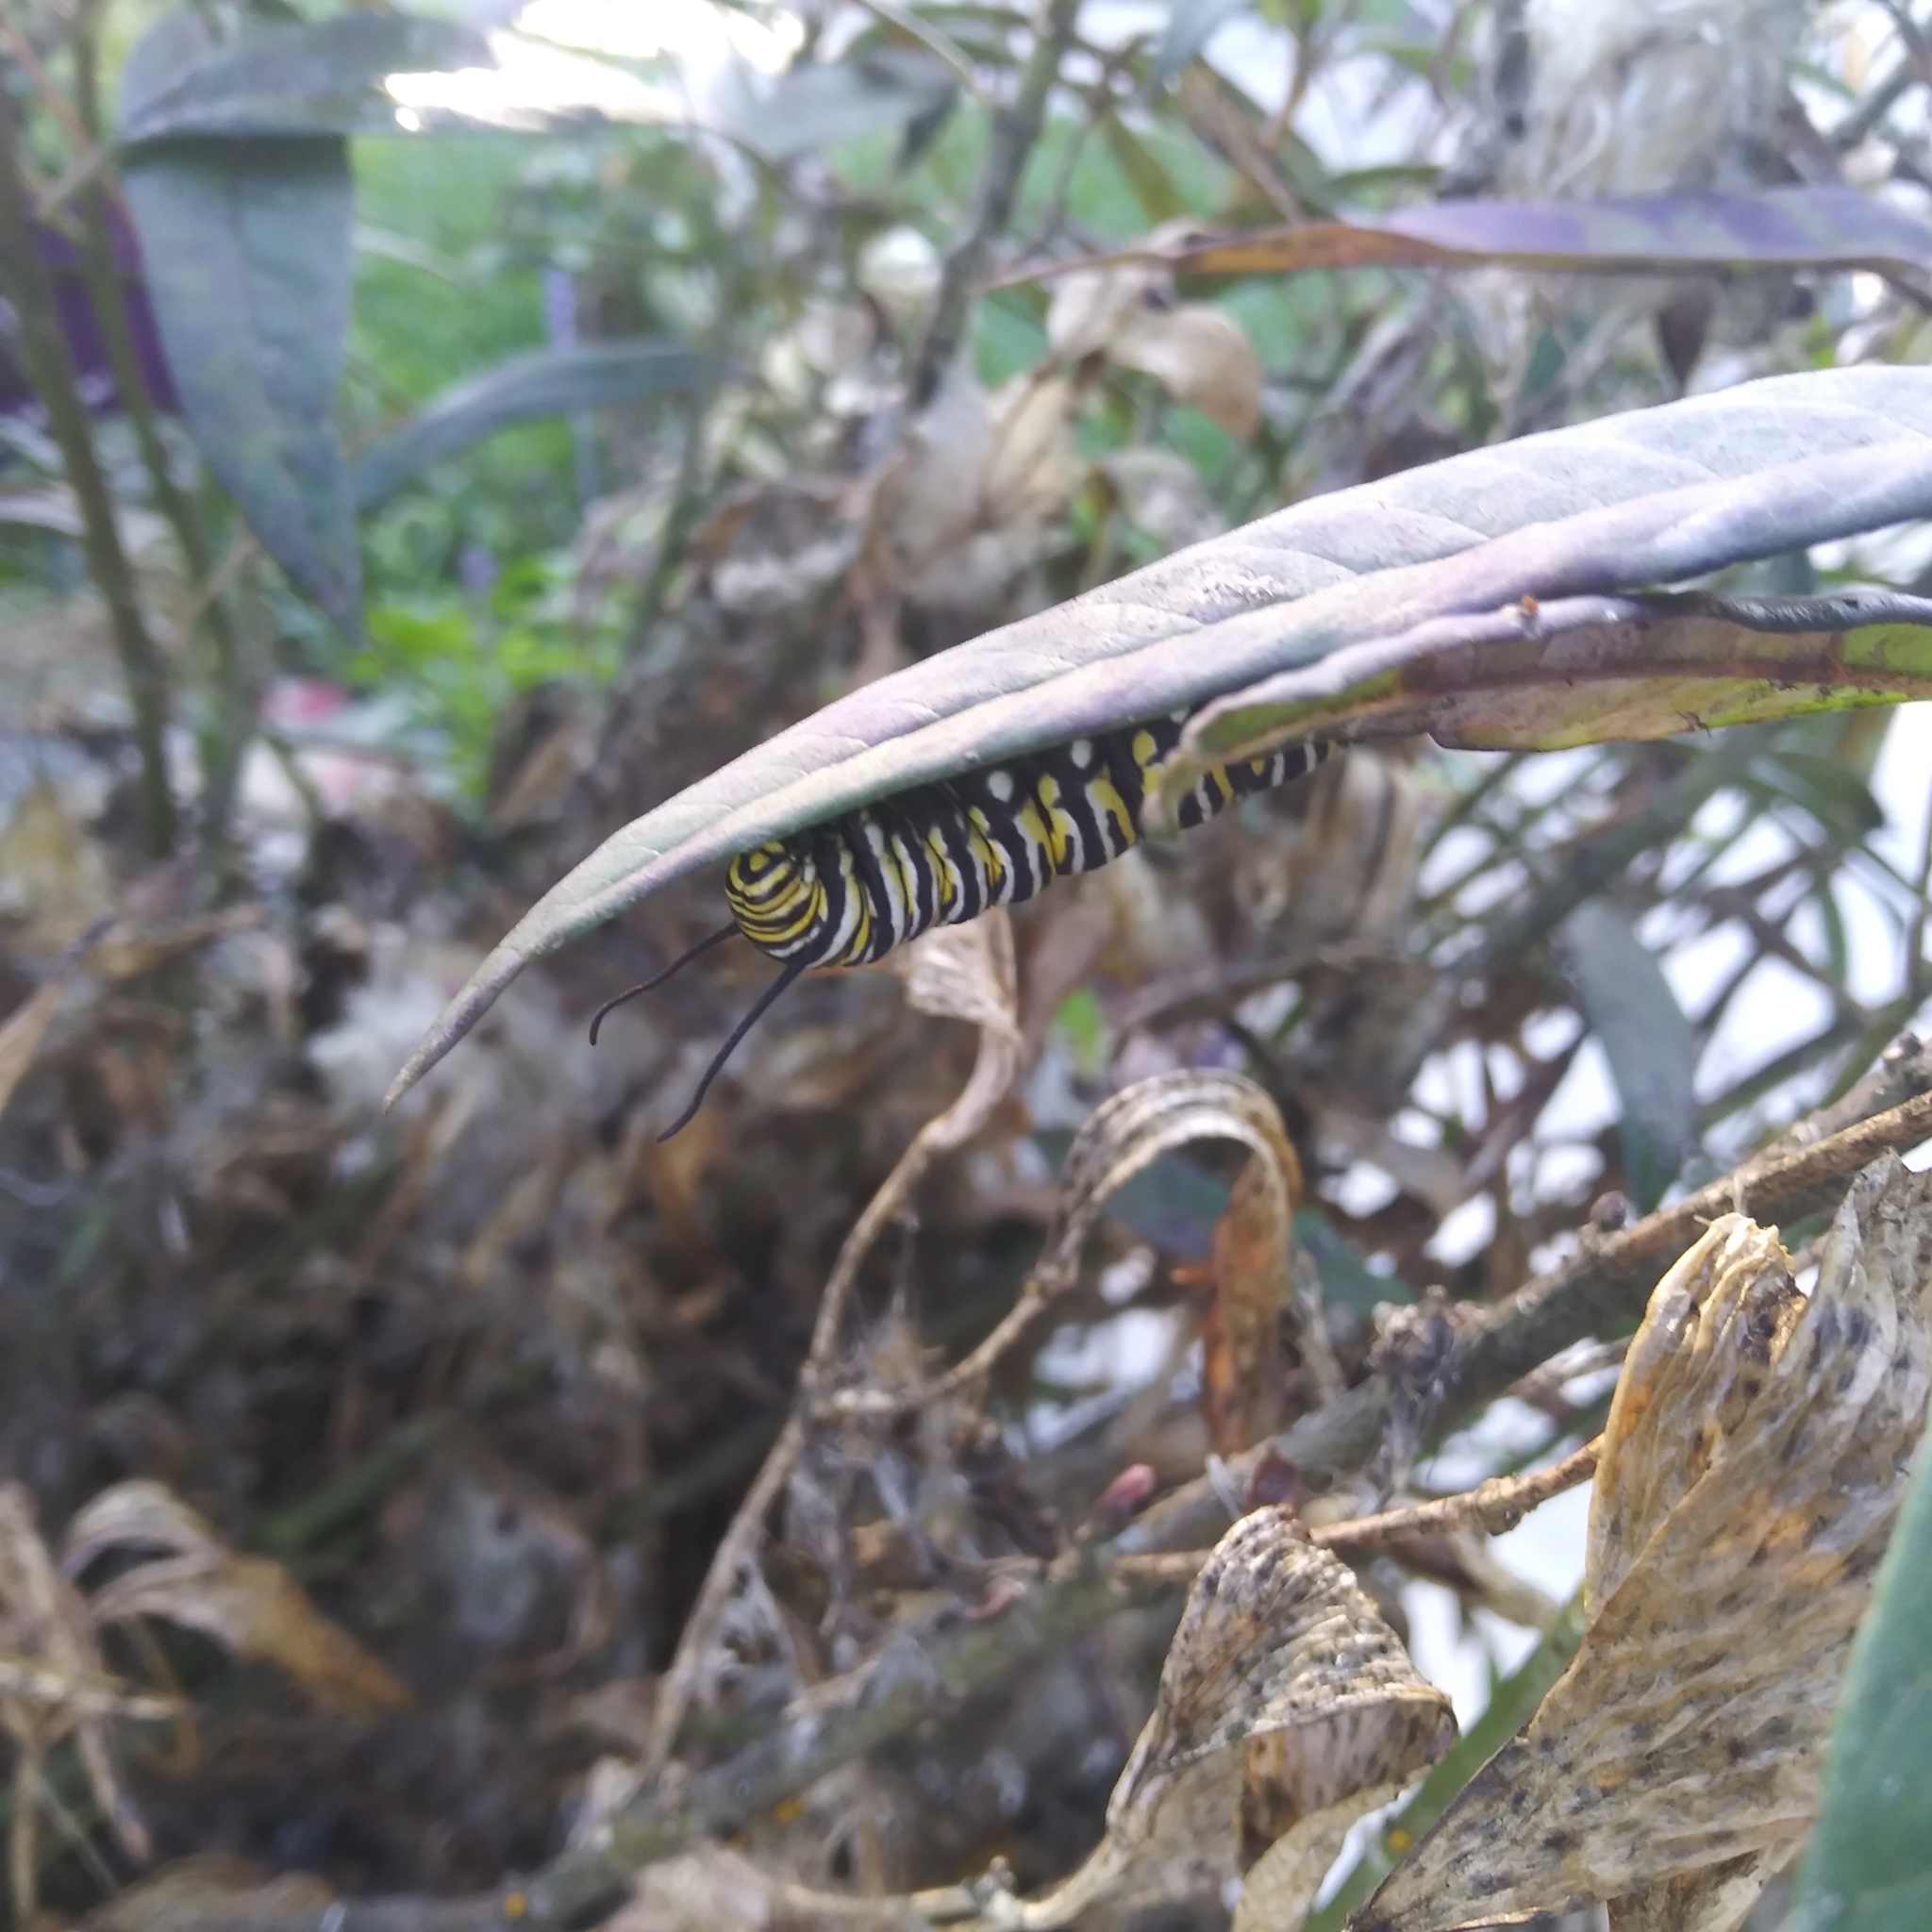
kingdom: Animalia
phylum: Arthropoda
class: Insecta
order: Lepidoptera
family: Nymphalidae
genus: Danaus
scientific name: Danaus plexippus
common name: Monarch
